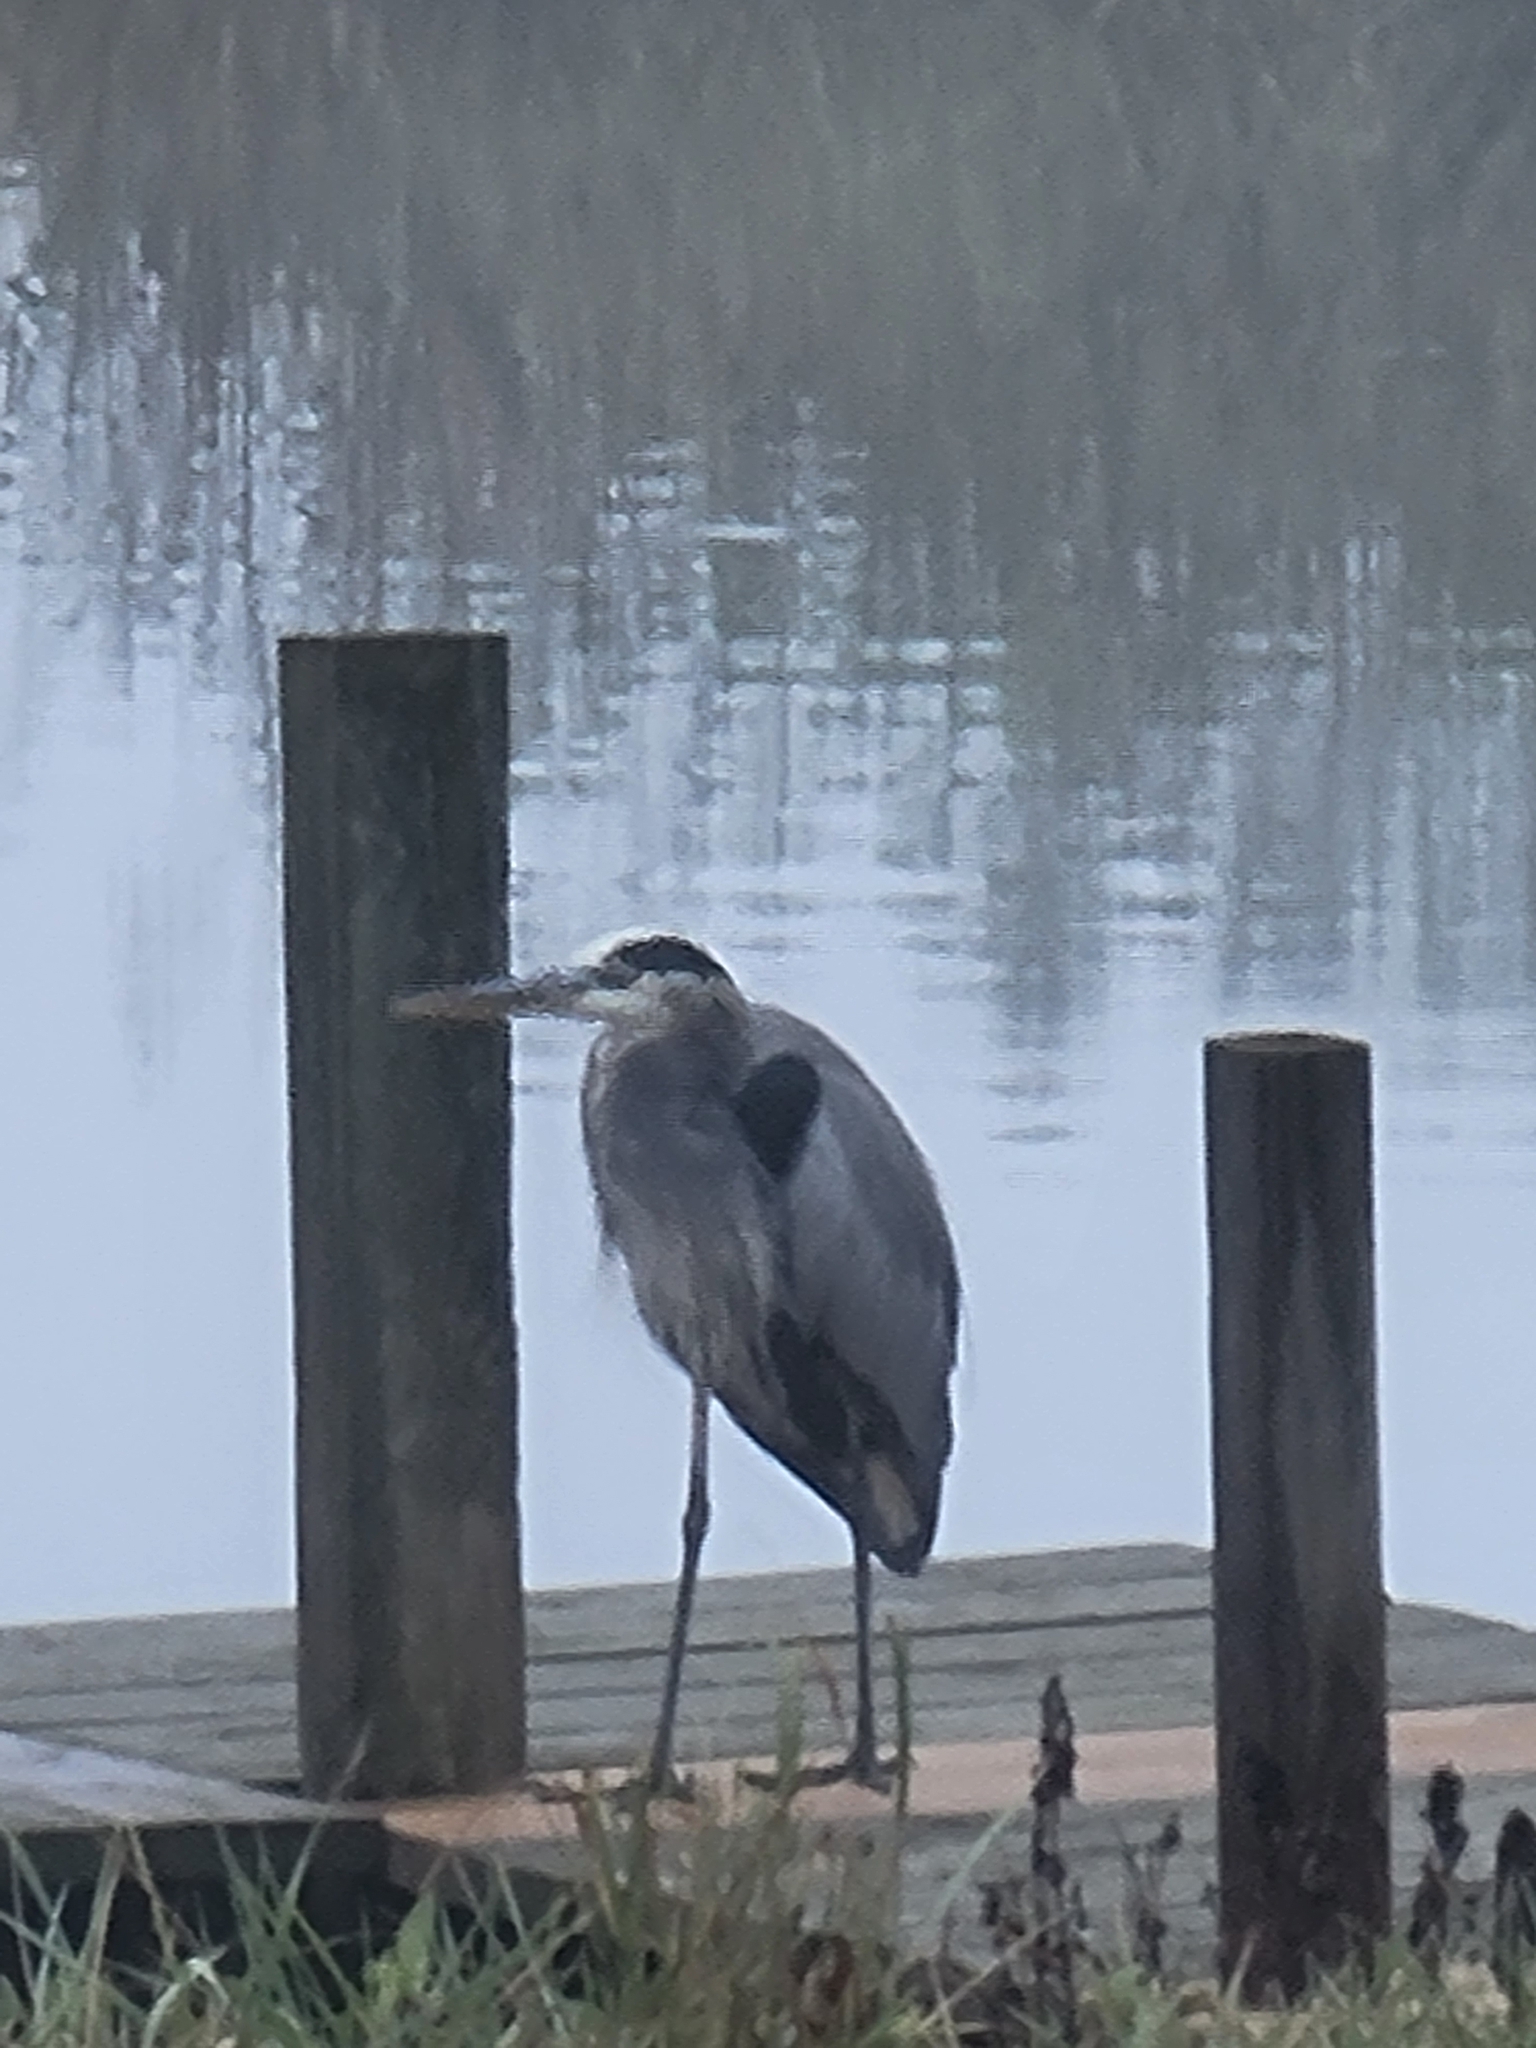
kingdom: Animalia
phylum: Chordata
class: Aves
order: Pelecaniformes
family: Ardeidae
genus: Ardea
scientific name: Ardea herodias
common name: Great blue heron
